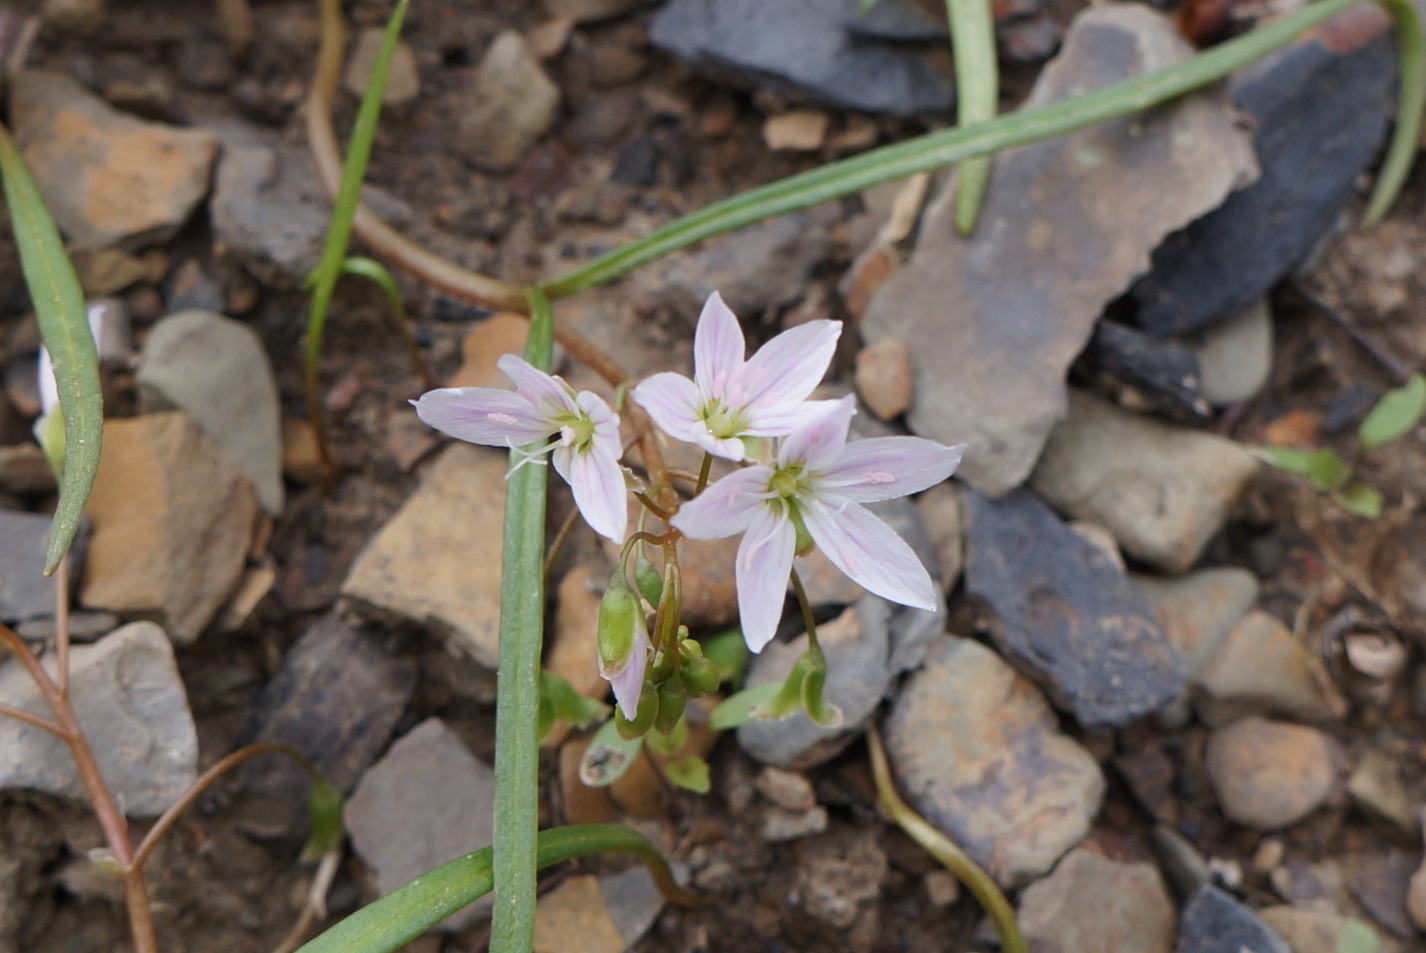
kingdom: Plantae
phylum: Tracheophyta
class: Magnoliopsida
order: Caryophyllales
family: Montiaceae
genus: Claytonia
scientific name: Claytonia virginica
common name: Virginia springbeauty
